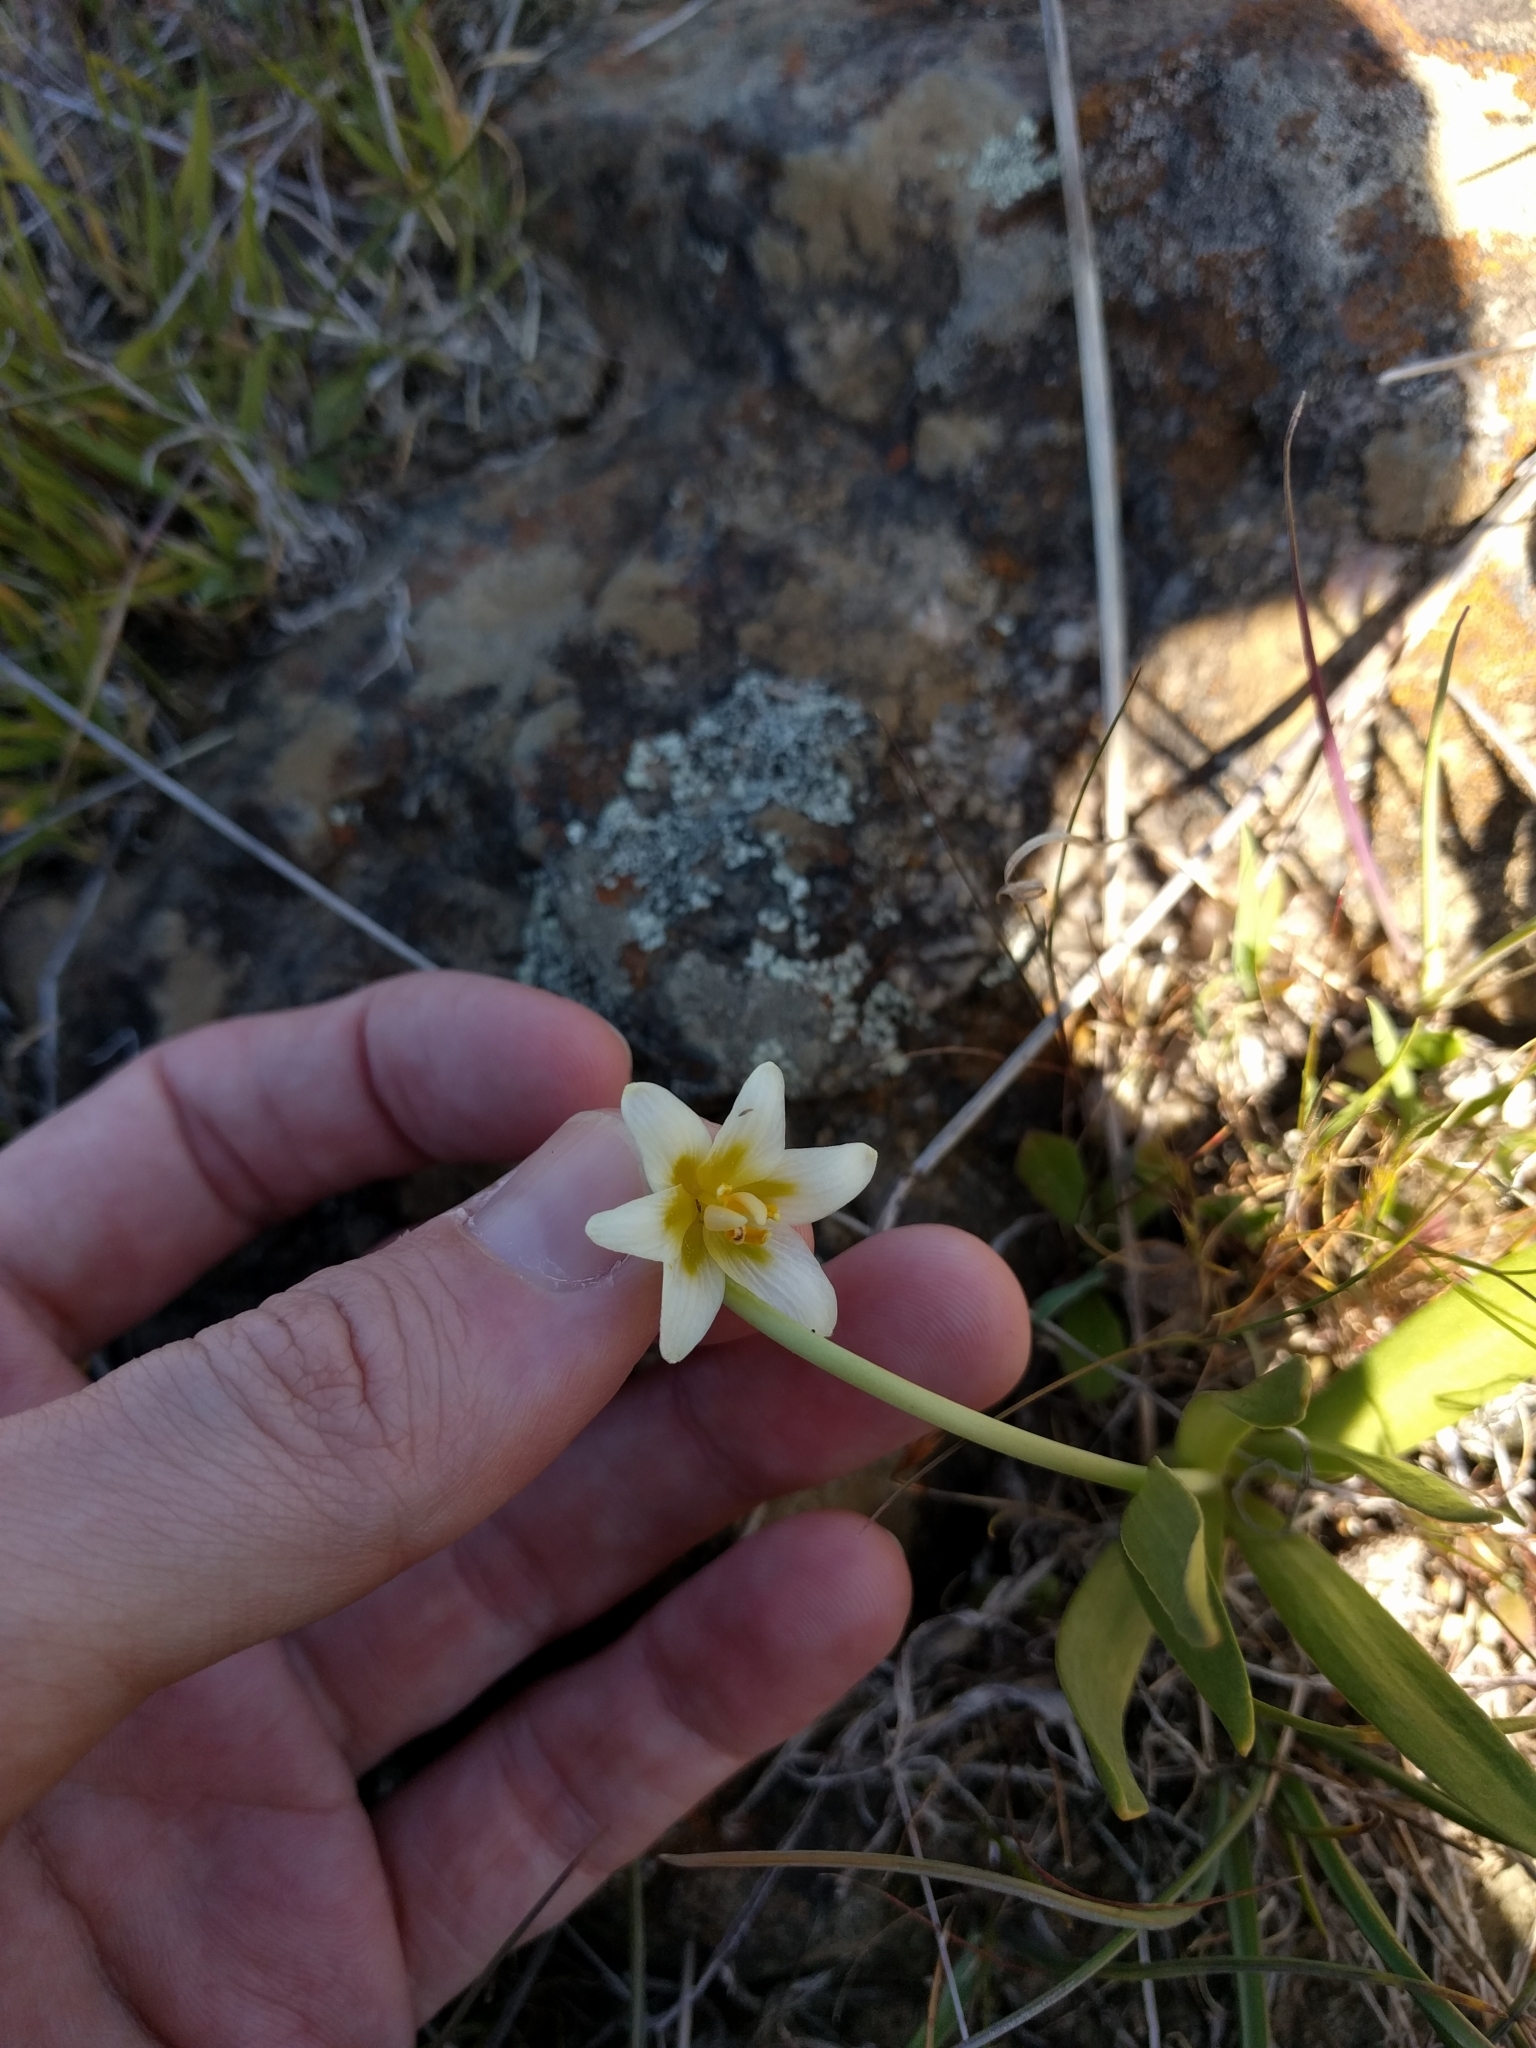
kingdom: Plantae
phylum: Tracheophyta
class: Liliopsida
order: Liliales
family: Liliaceae
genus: Fritillaria
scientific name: Fritillaria liliacea
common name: Fragrant fritillary
